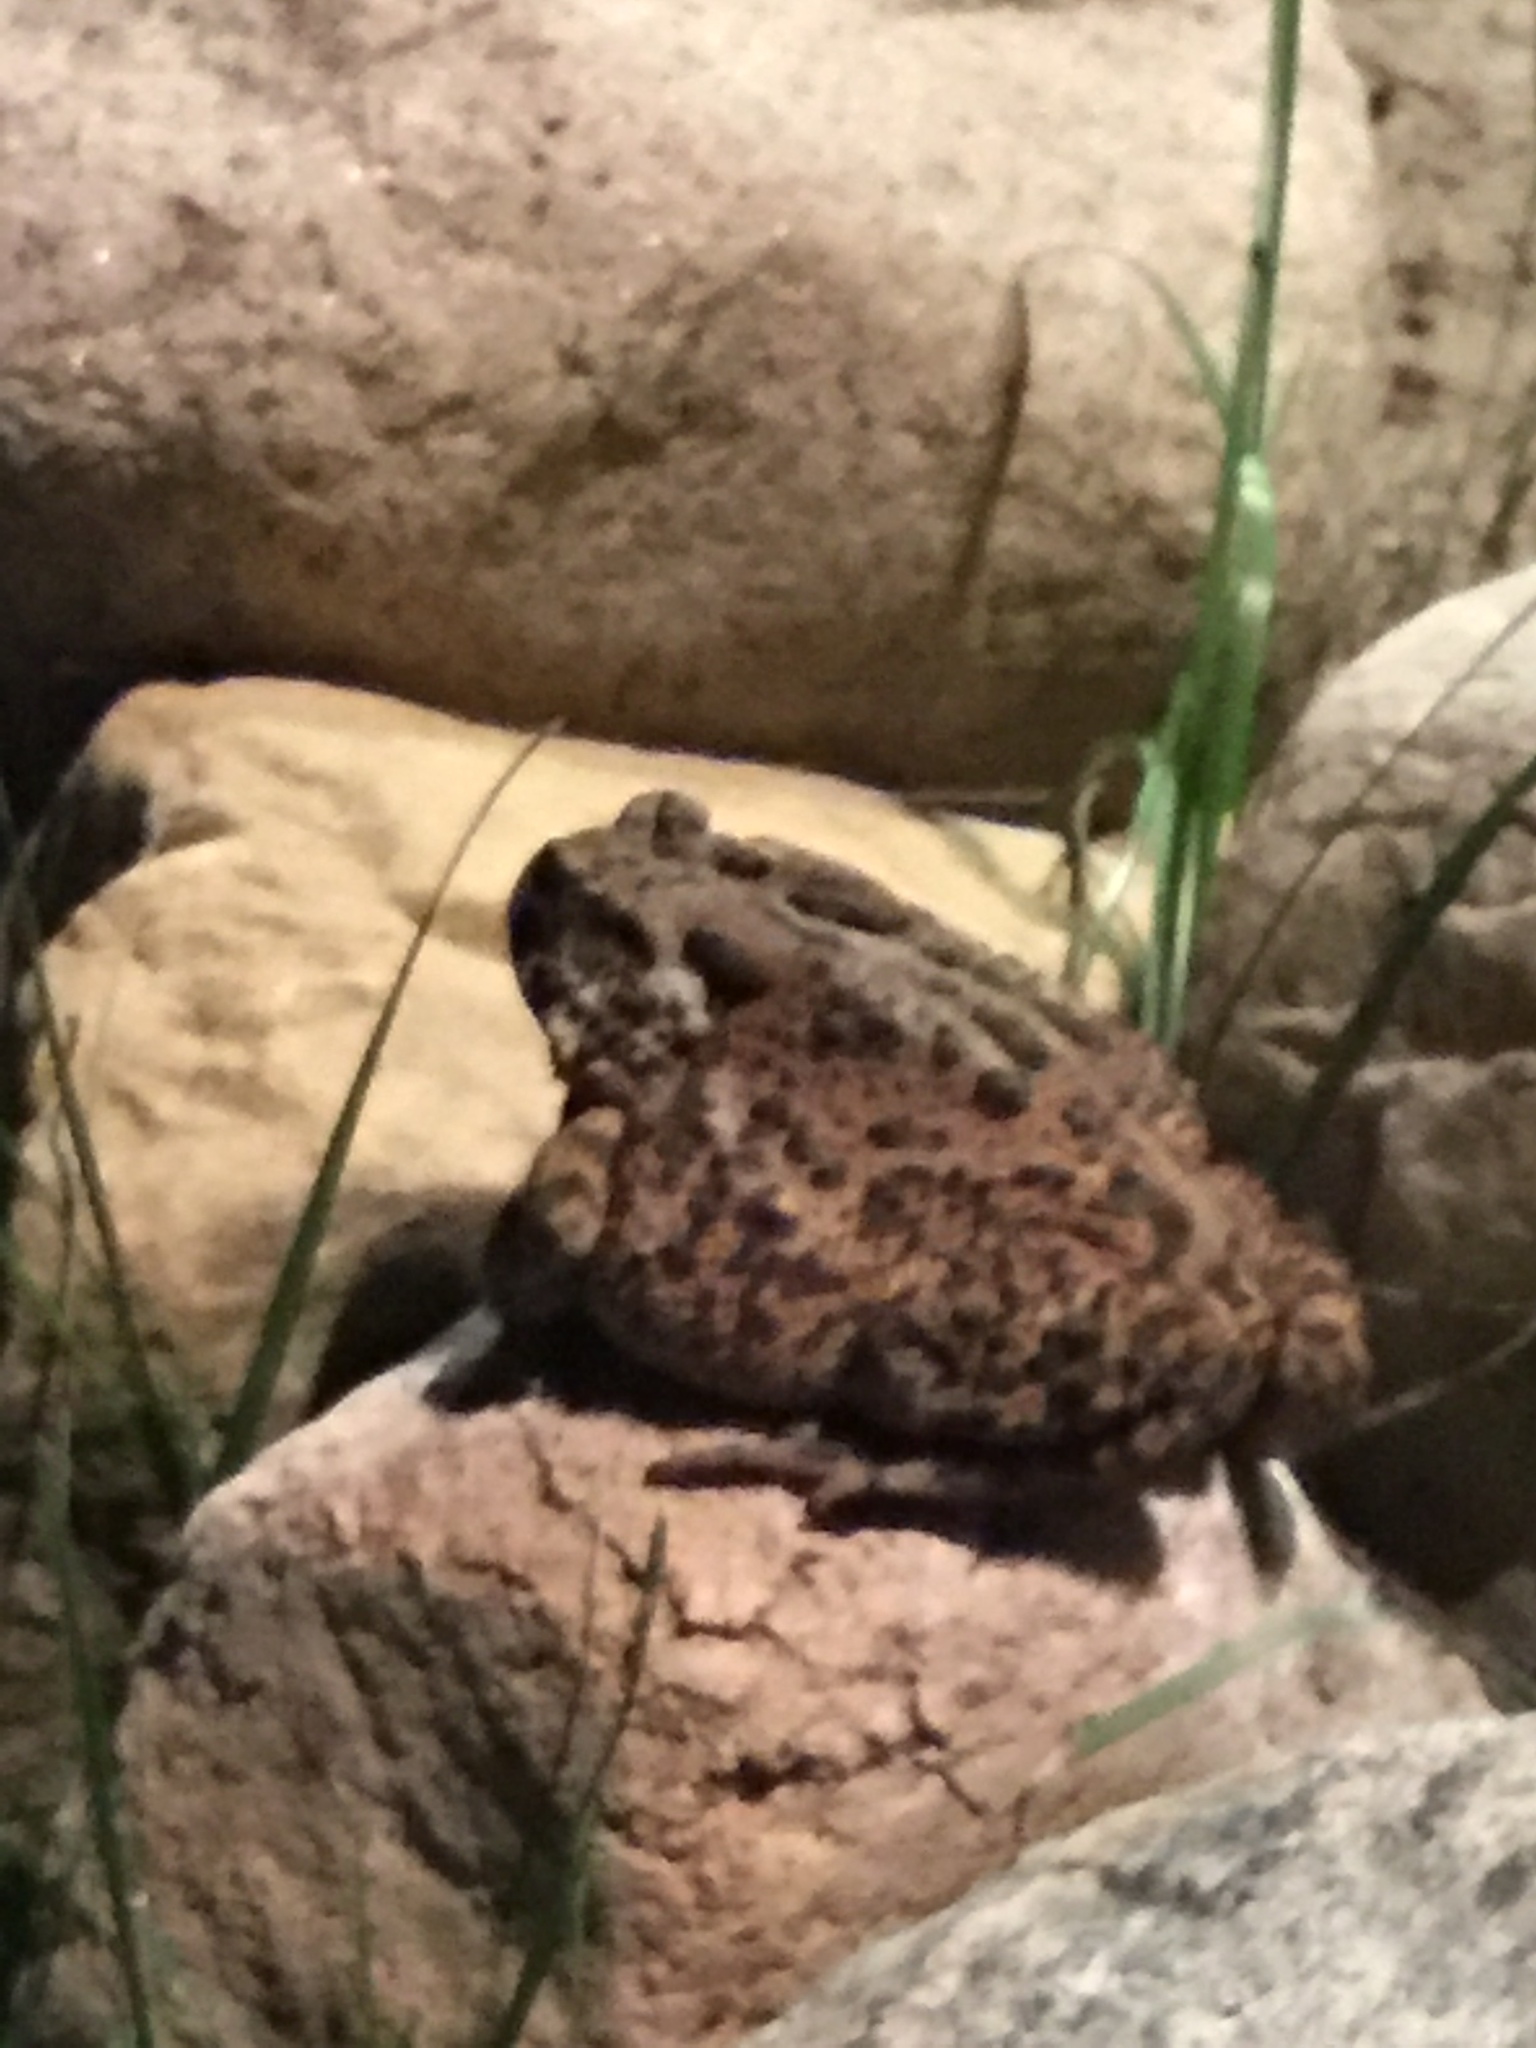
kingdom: Animalia
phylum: Chordata
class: Amphibia
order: Anura
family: Bufonidae
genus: Anaxyrus
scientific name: Anaxyrus americanus
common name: American toad
